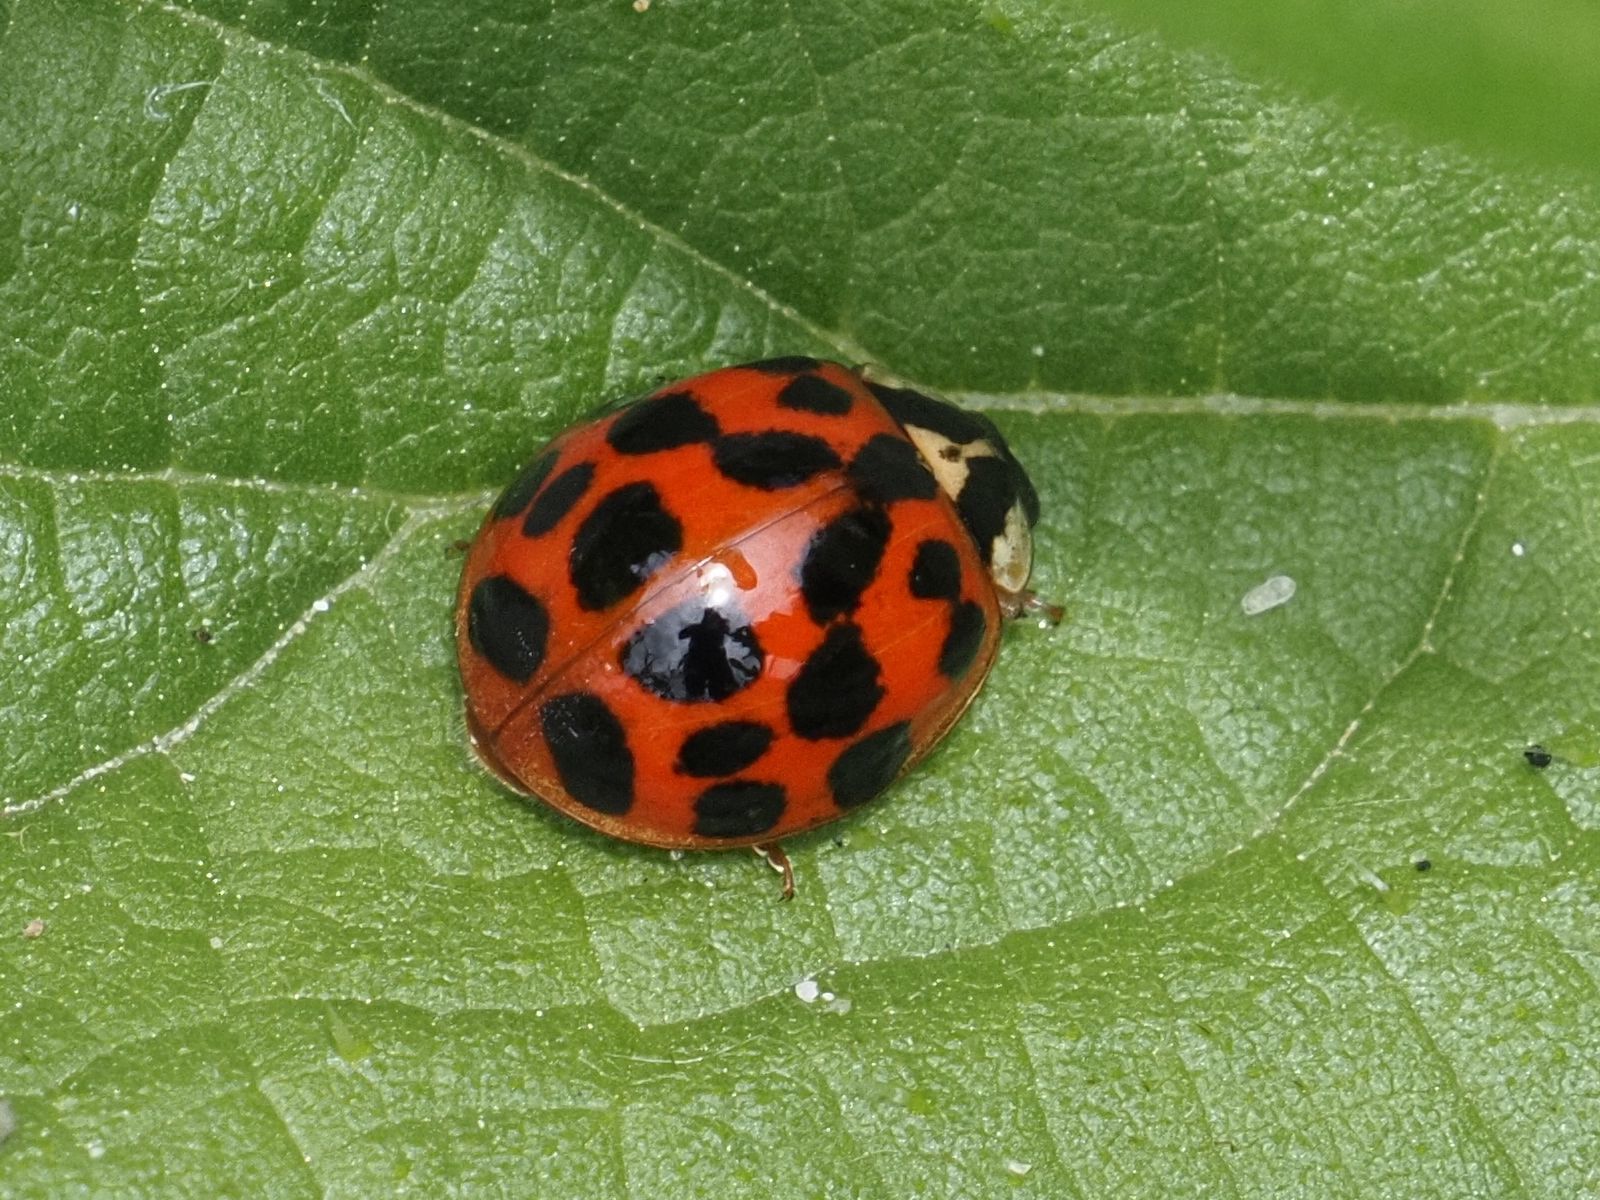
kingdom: Animalia
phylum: Arthropoda
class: Insecta
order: Coleoptera
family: Coccinellidae
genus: Harmonia
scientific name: Harmonia axyridis
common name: Harlequin ladybird
